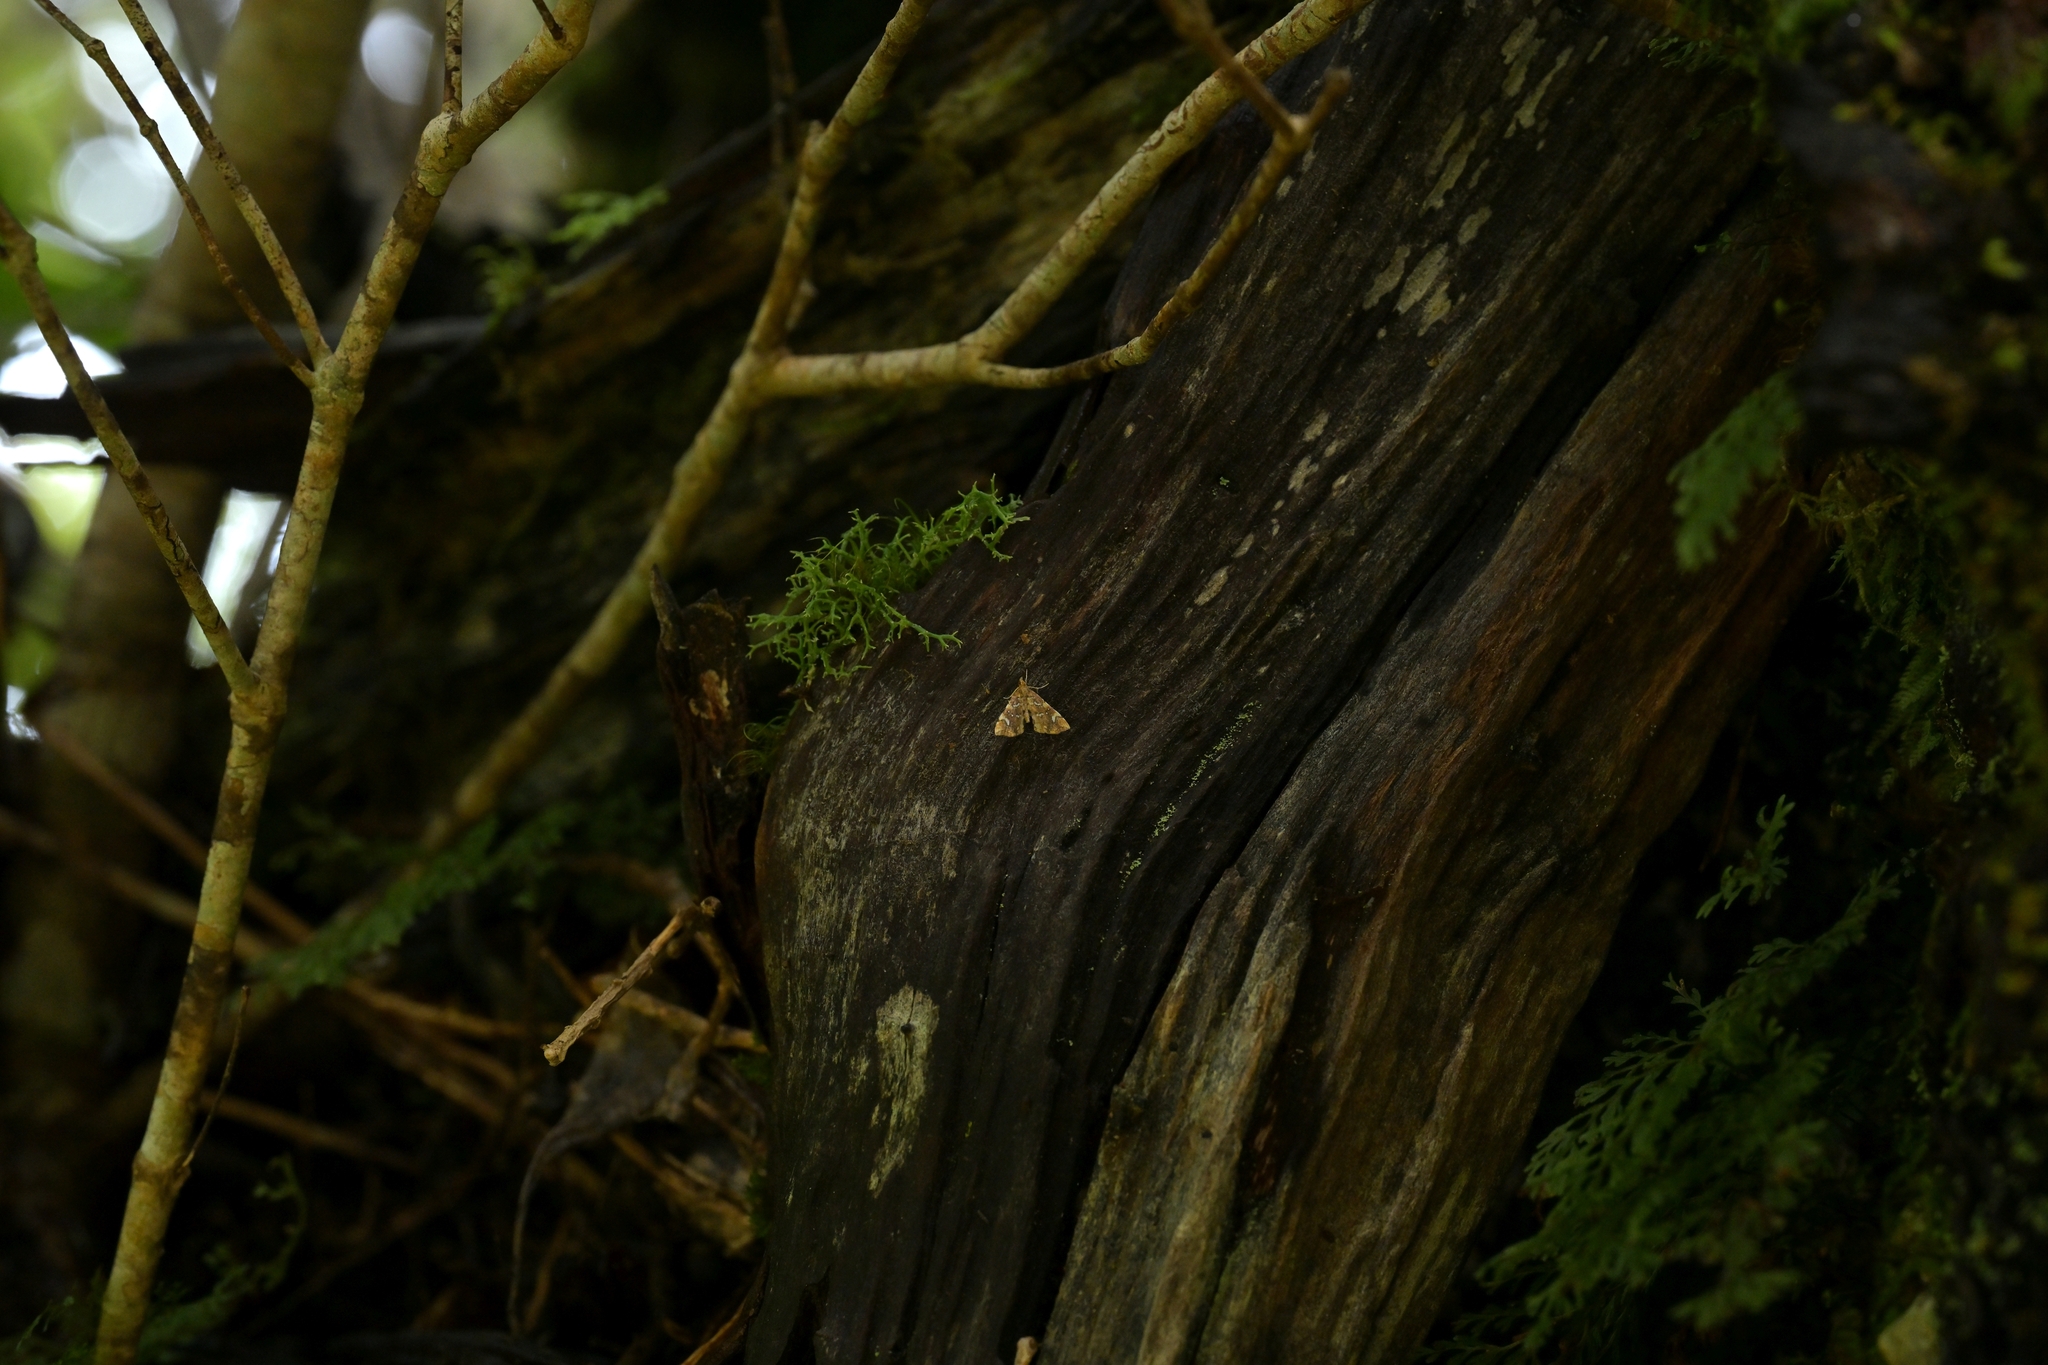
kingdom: Animalia
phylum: Arthropoda
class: Insecta
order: Lepidoptera
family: Pyralidae
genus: Musotima
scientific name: Musotima nitidalis
